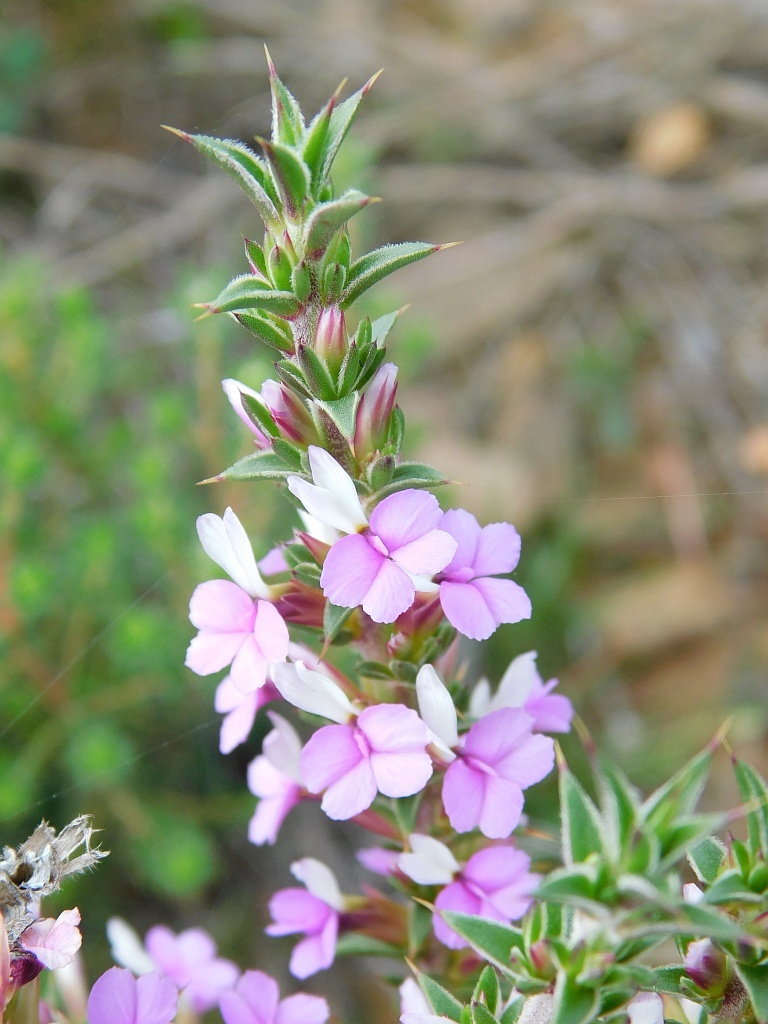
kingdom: Plantae
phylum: Tracheophyta
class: Magnoliopsida
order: Fabales
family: Polygalaceae
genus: Muraltia
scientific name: Muraltia heisteria
